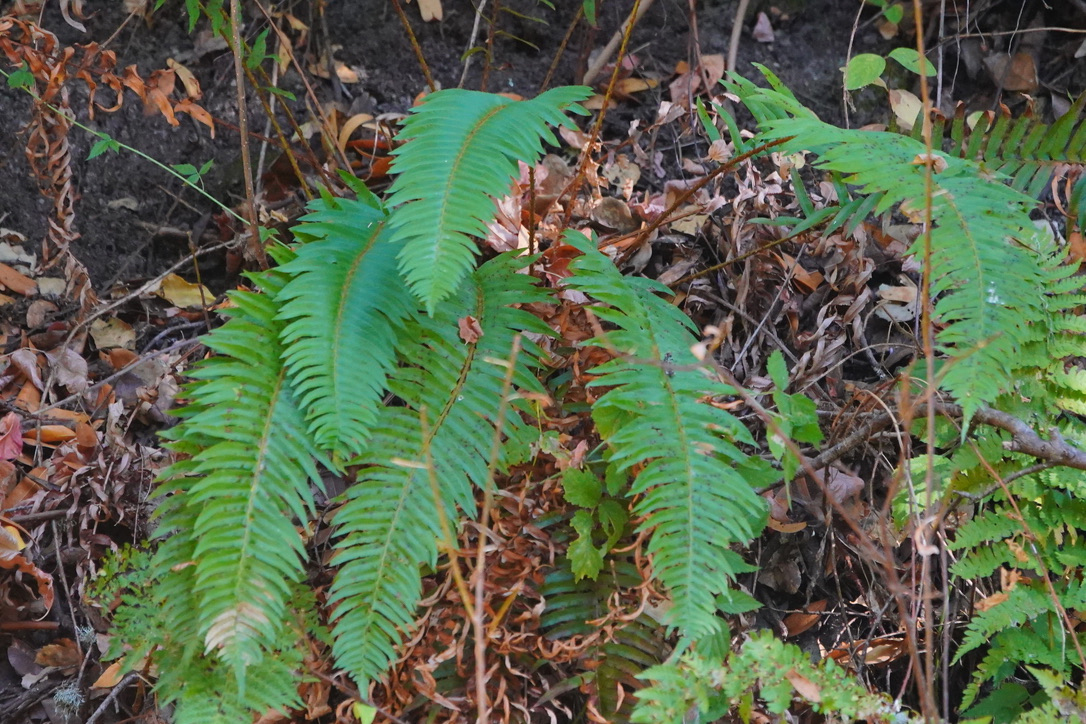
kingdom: Plantae
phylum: Tracheophyta
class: Polypodiopsida
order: Polypodiales
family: Dryopteridaceae
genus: Polystichum
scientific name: Polystichum munitum
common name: Western sword-fern
